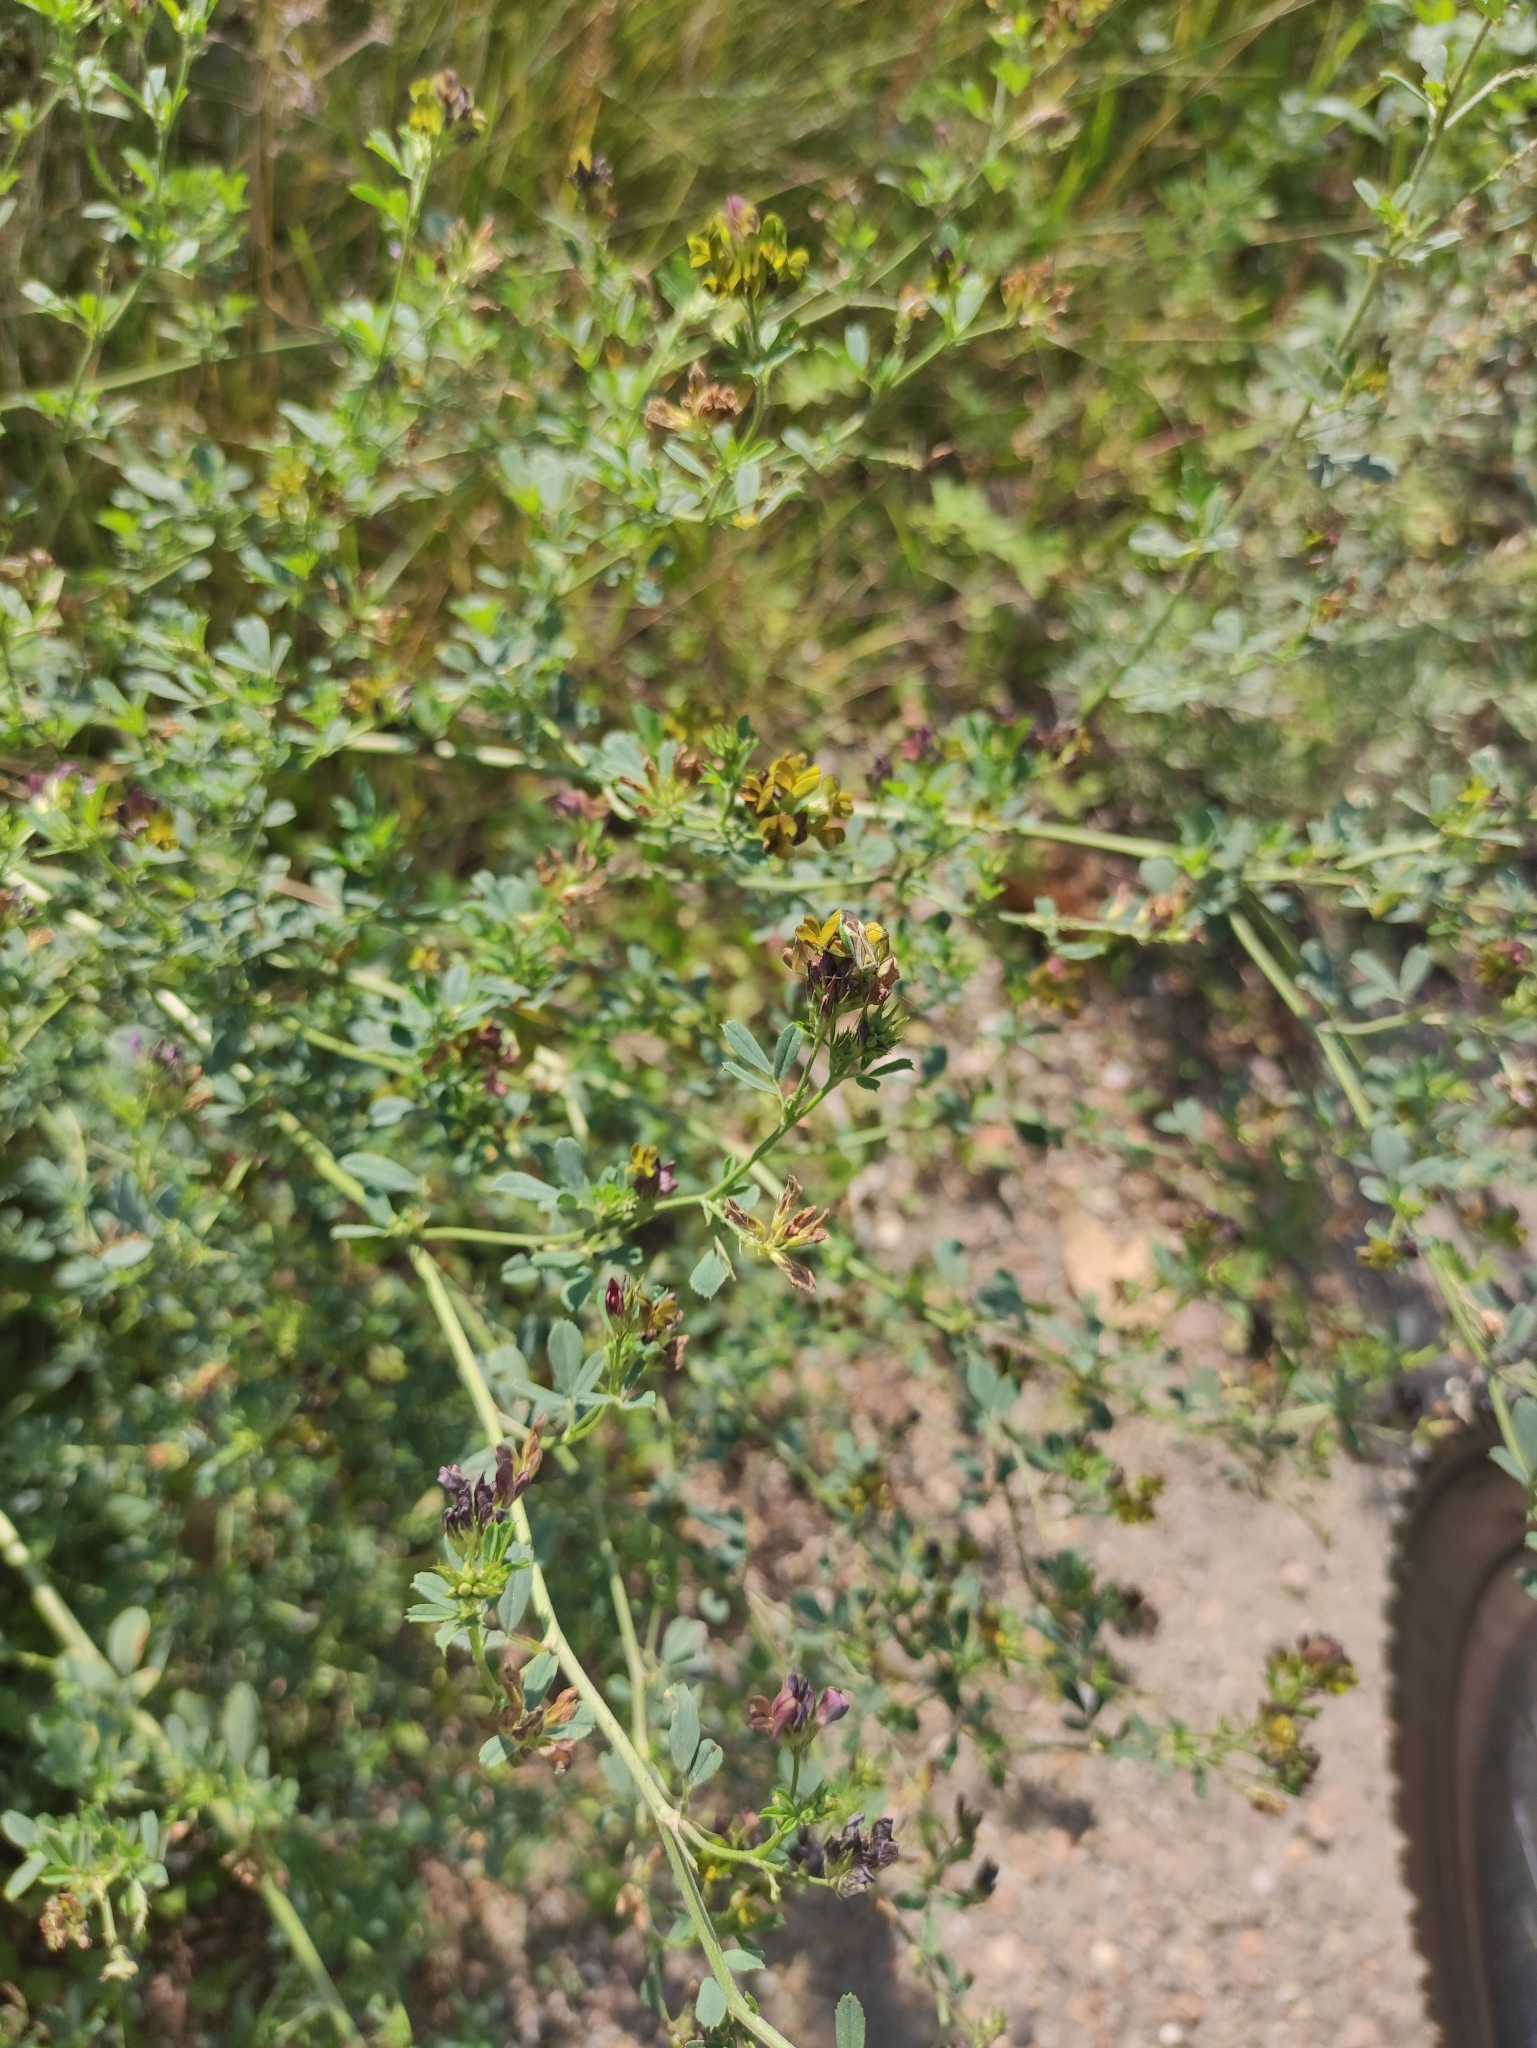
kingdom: Plantae
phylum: Tracheophyta
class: Magnoliopsida
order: Fabales
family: Fabaceae
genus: Medicago
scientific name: Medicago varia
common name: Sand lucerne
